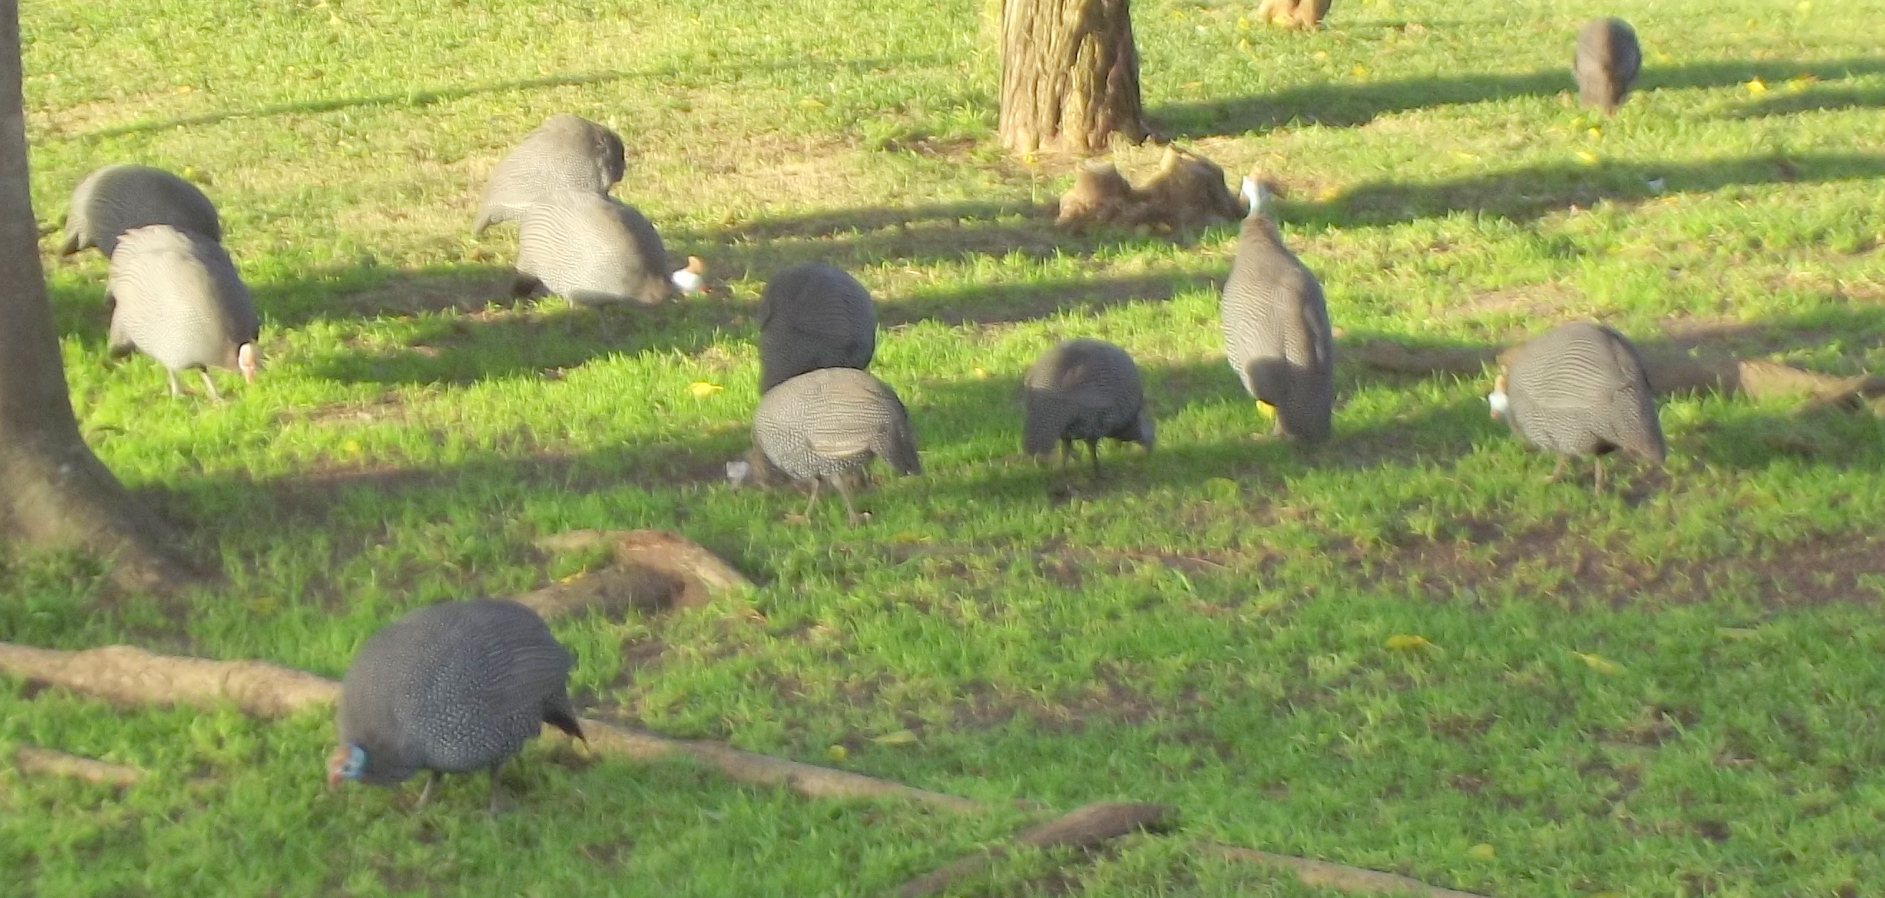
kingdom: Animalia
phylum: Chordata
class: Aves
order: Galliformes
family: Numididae
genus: Numida
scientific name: Numida meleagris
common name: Helmeted guineafowl
